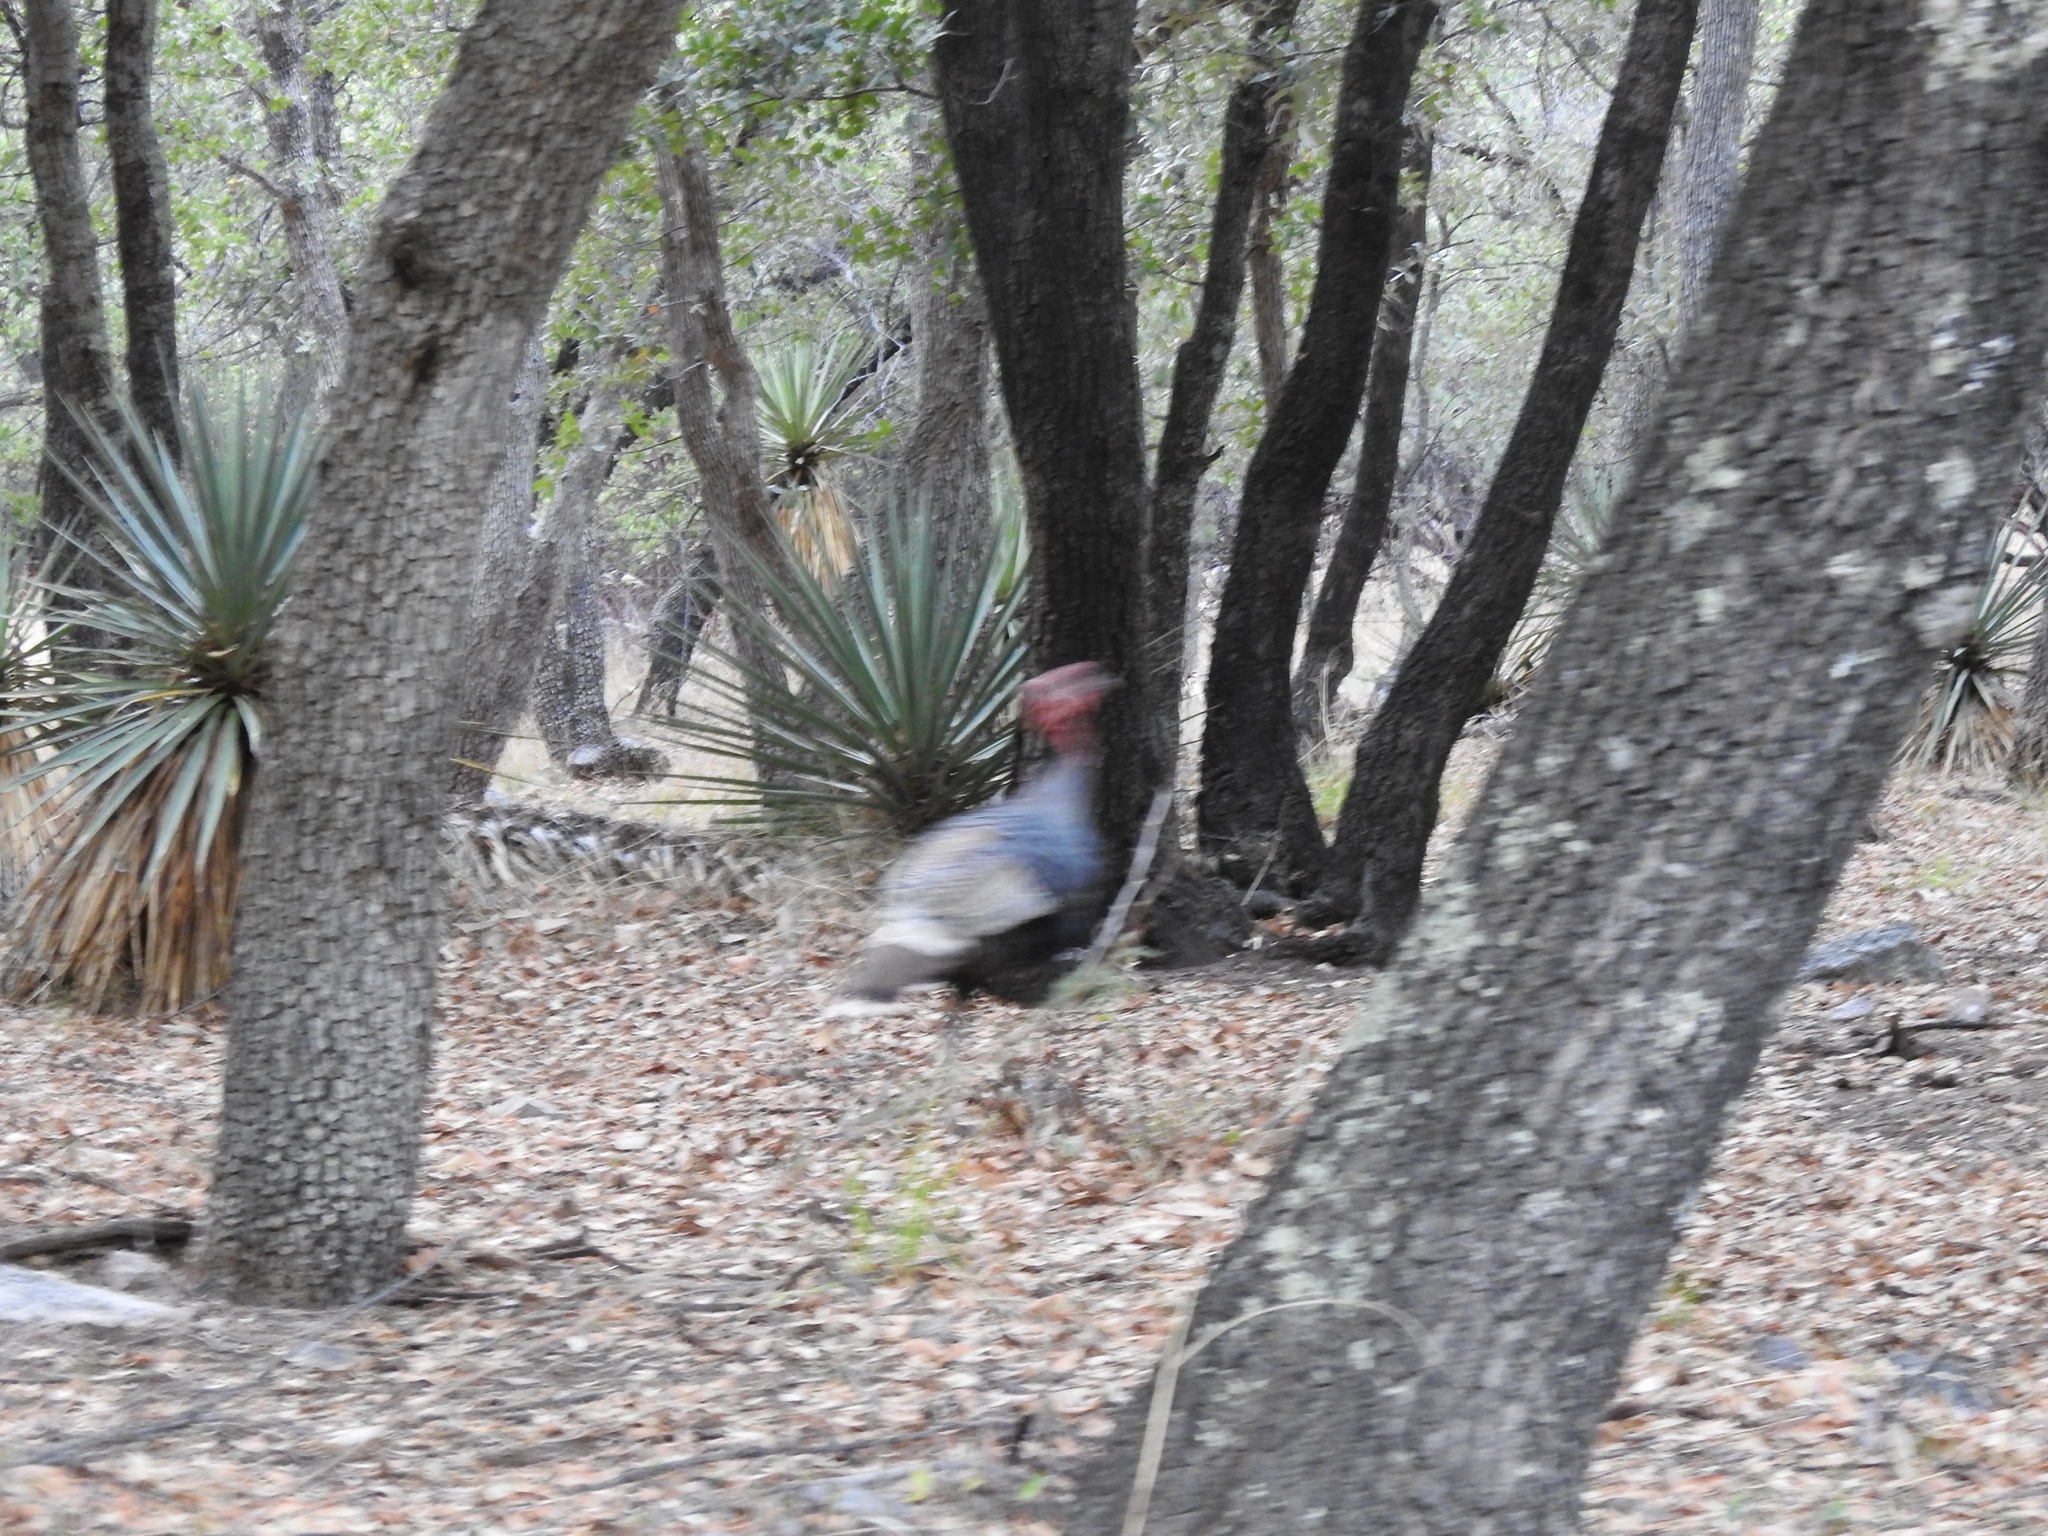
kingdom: Animalia
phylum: Chordata
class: Aves
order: Galliformes
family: Phasianidae
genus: Meleagris
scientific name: Meleagris gallopavo
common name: Wild turkey
